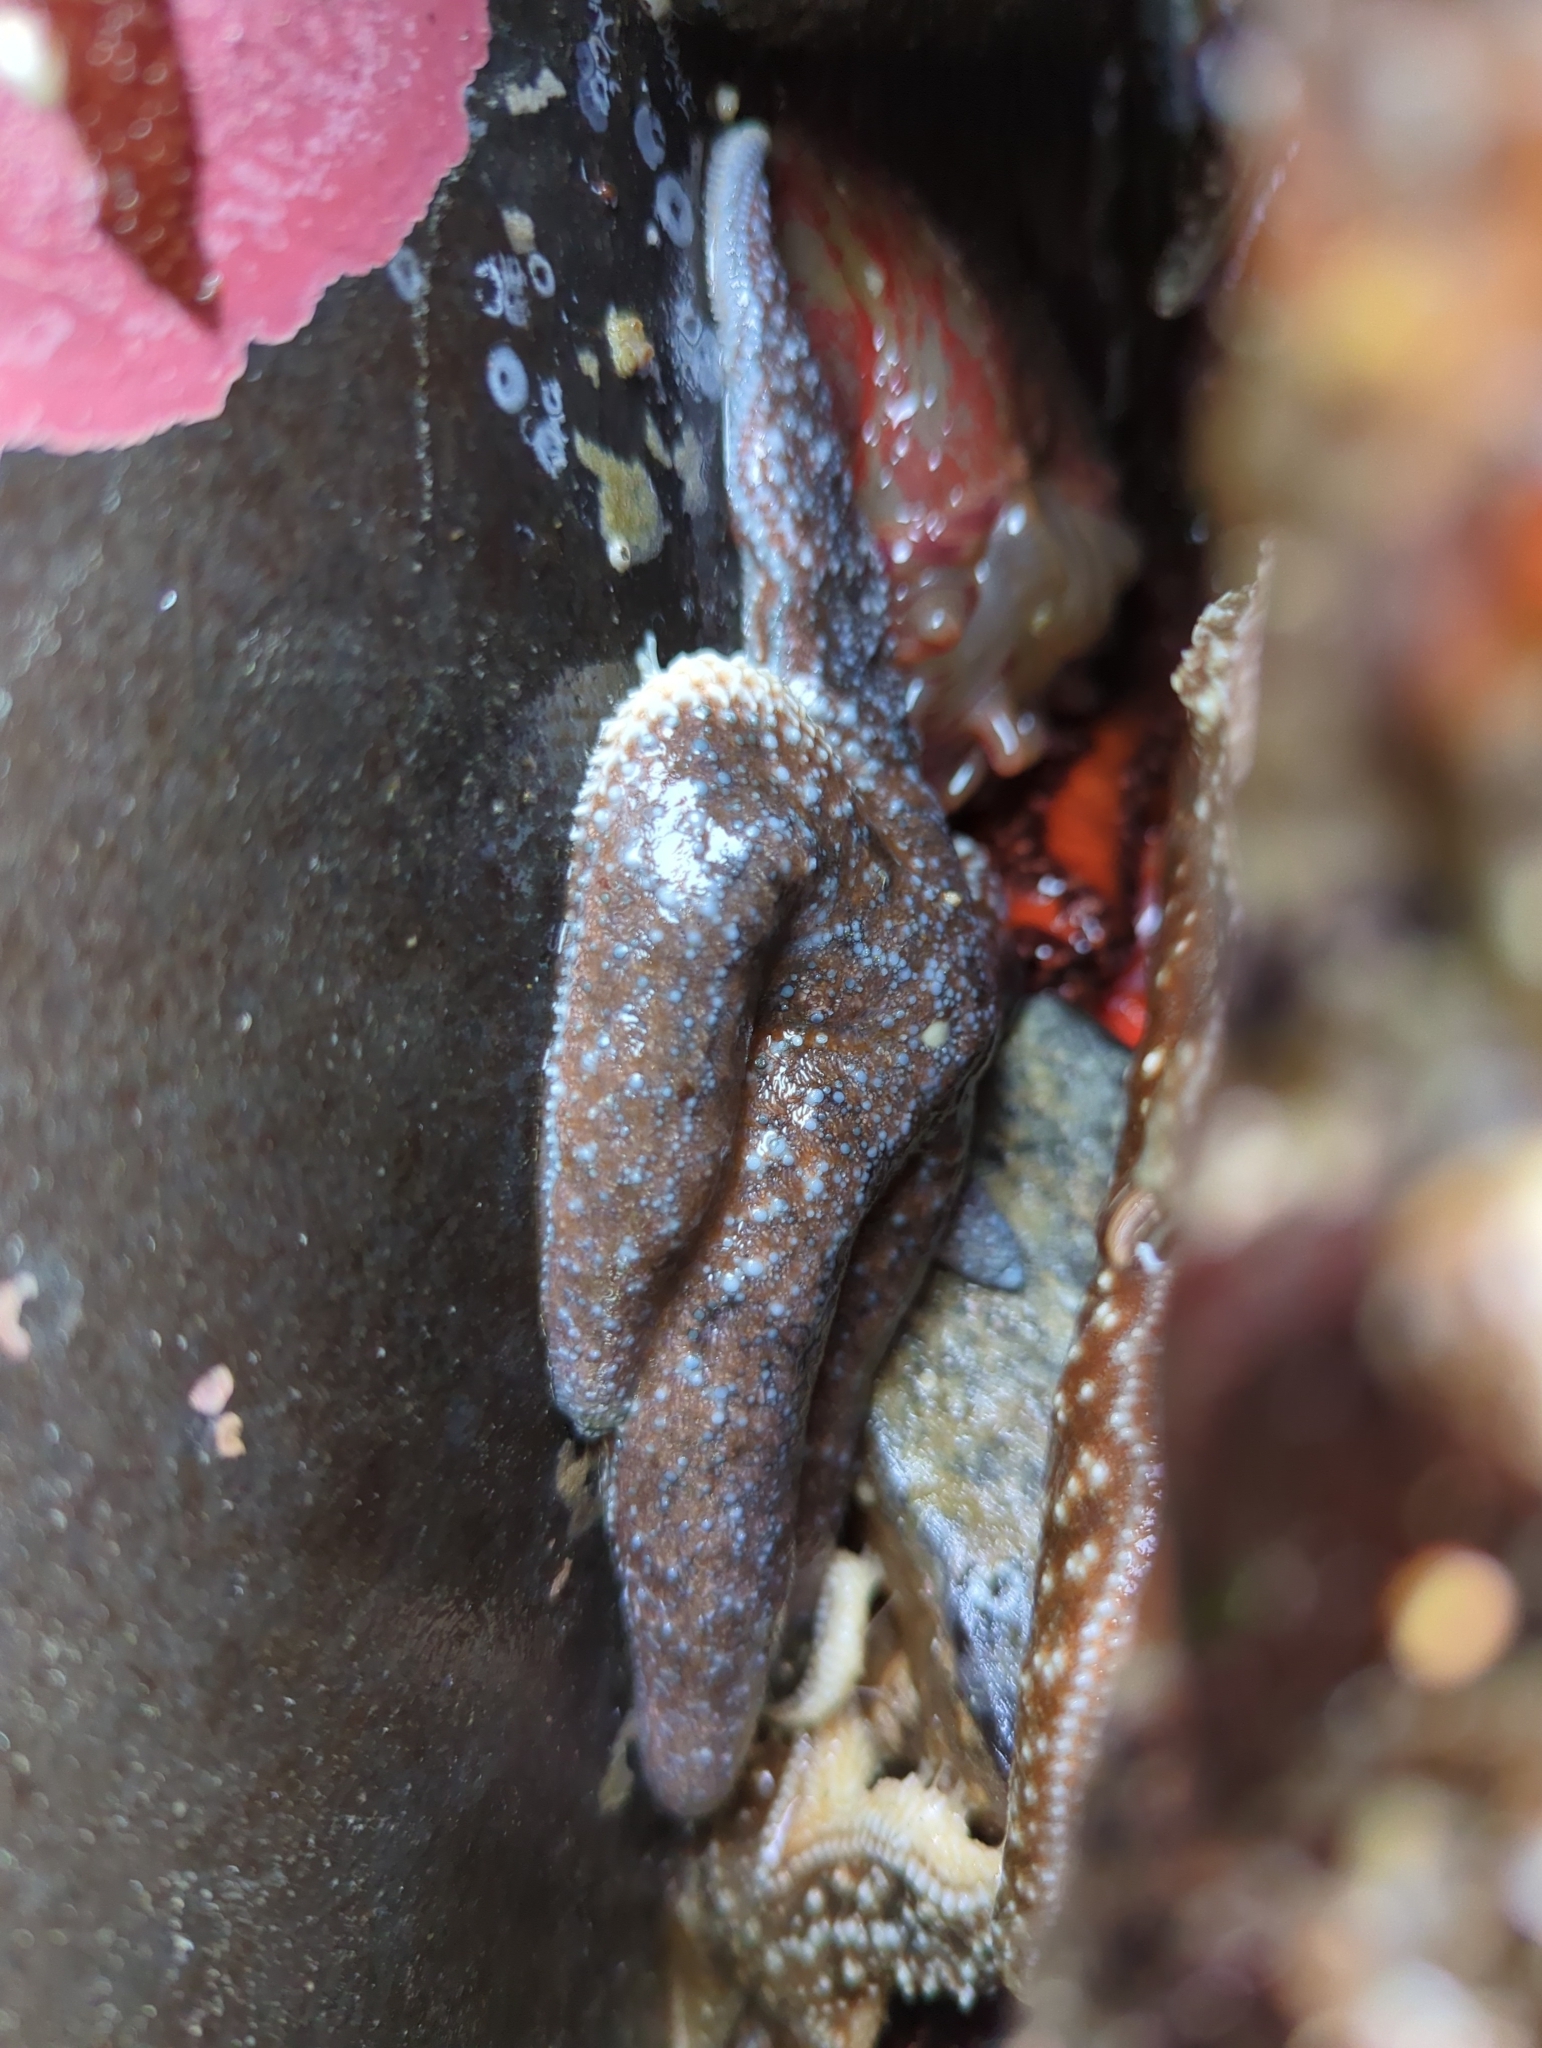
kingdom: Animalia
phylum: Echinodermata
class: Asteroidea
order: Forcipulatida
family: Asteriidae
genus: Evasterias
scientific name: Evasterias troschelii
